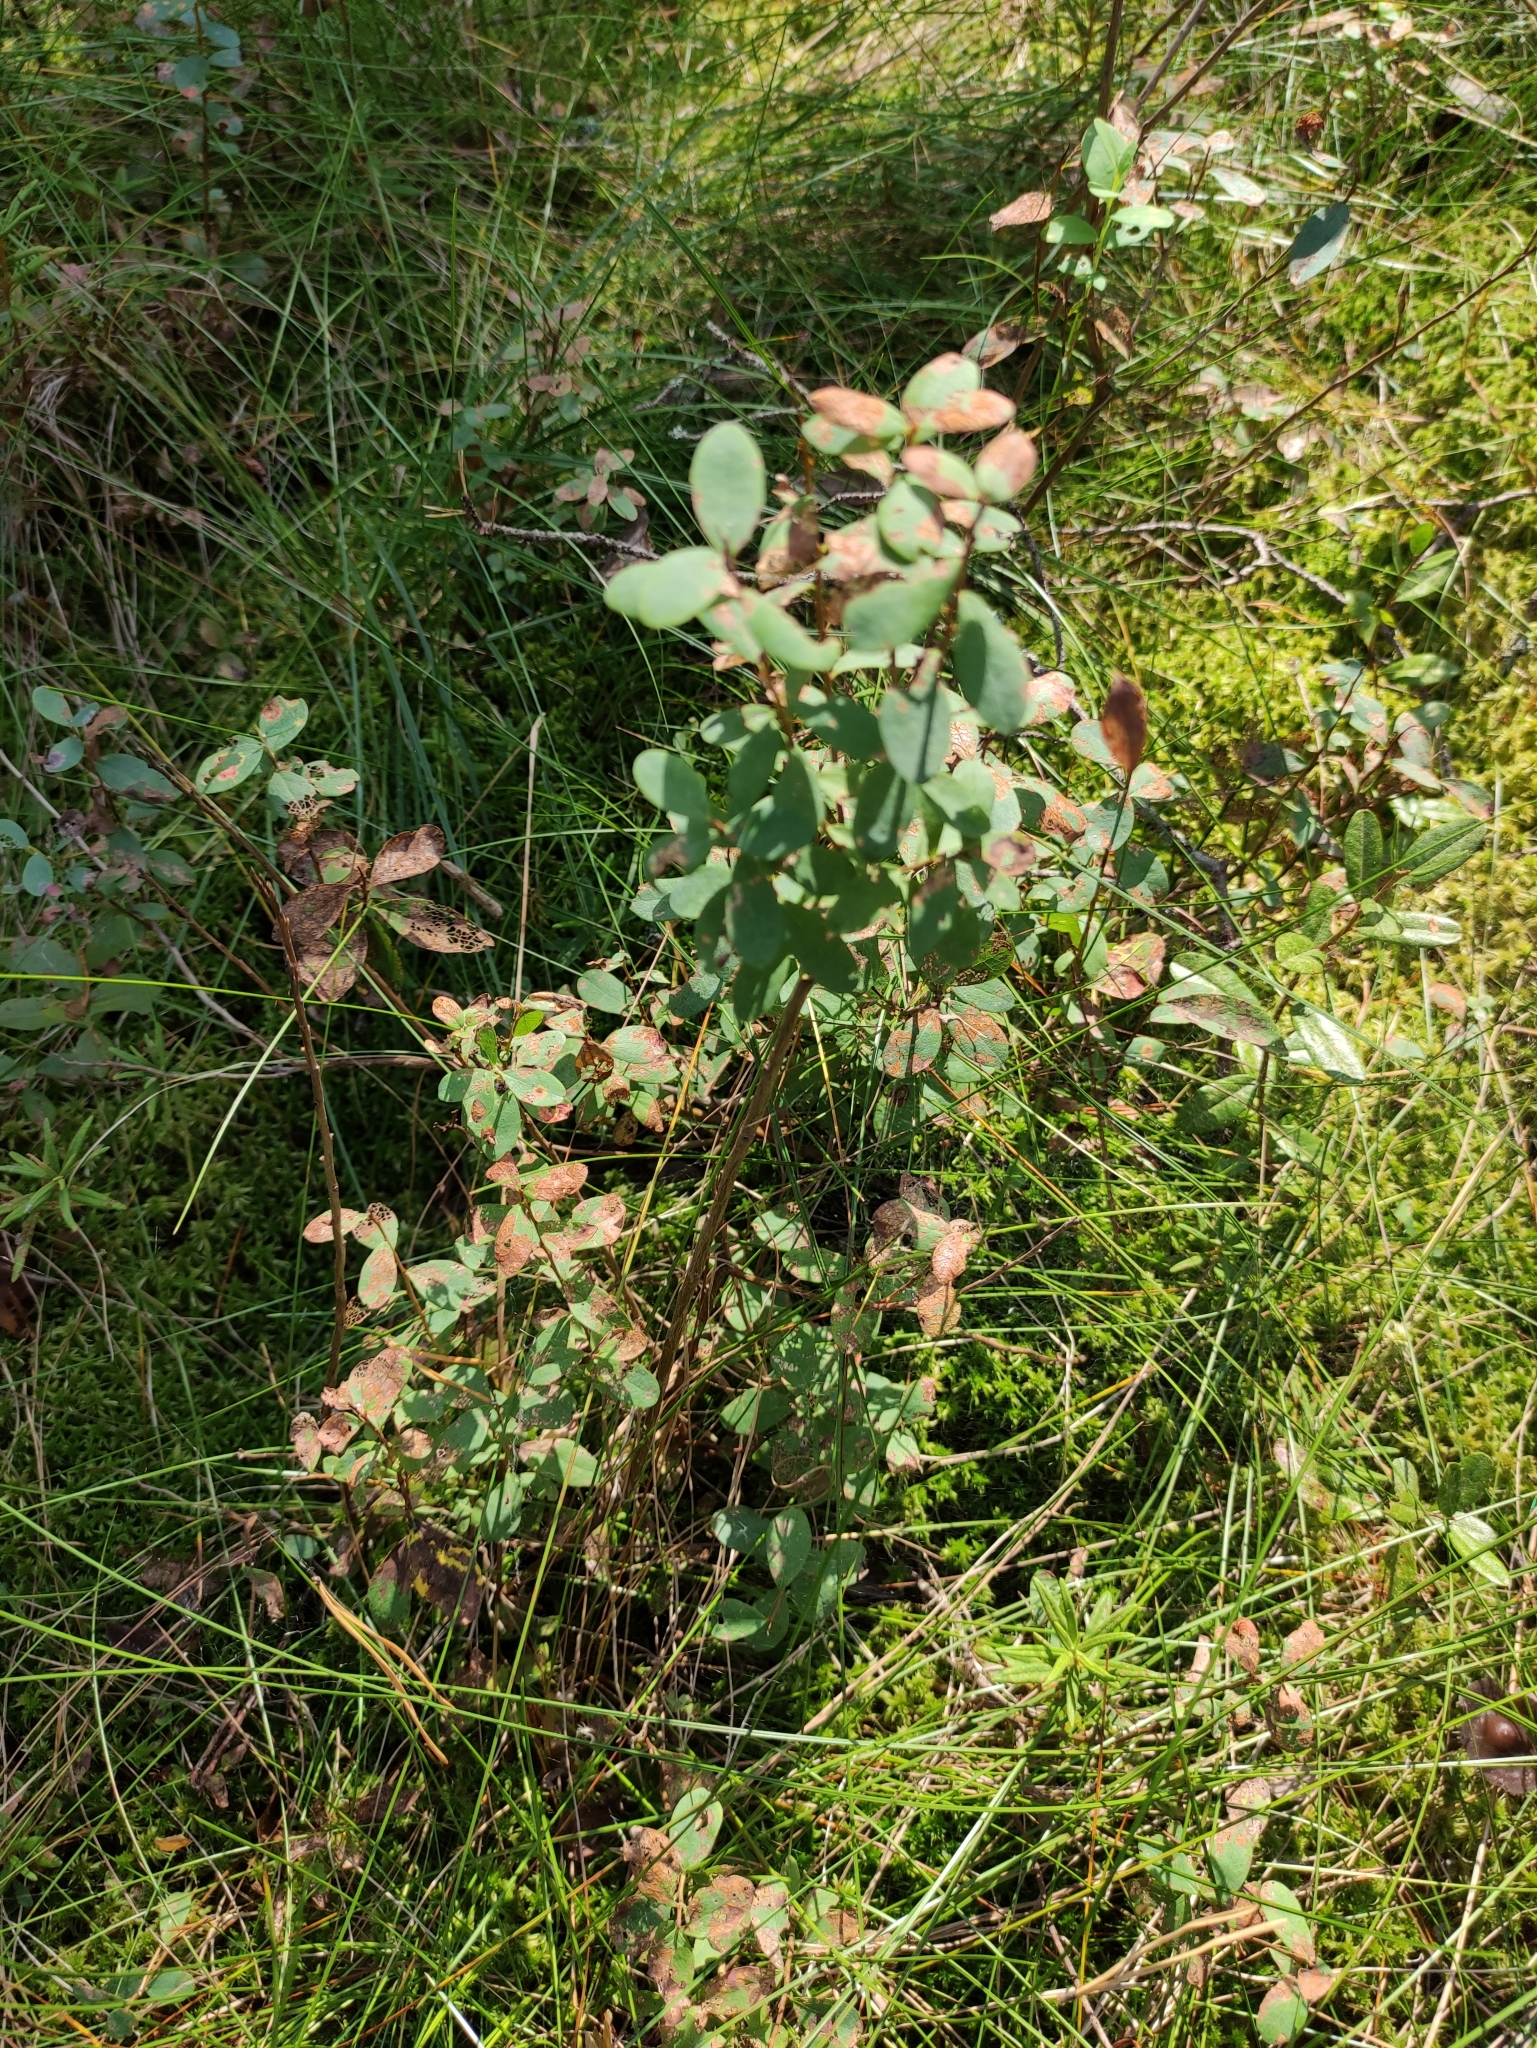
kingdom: Plantae
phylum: Tracheophyta
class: Magnoliopsida
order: Ericales
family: Ericaceae
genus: Vaccinium
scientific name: Vaccinium uliginosum
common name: Bog bilberry
